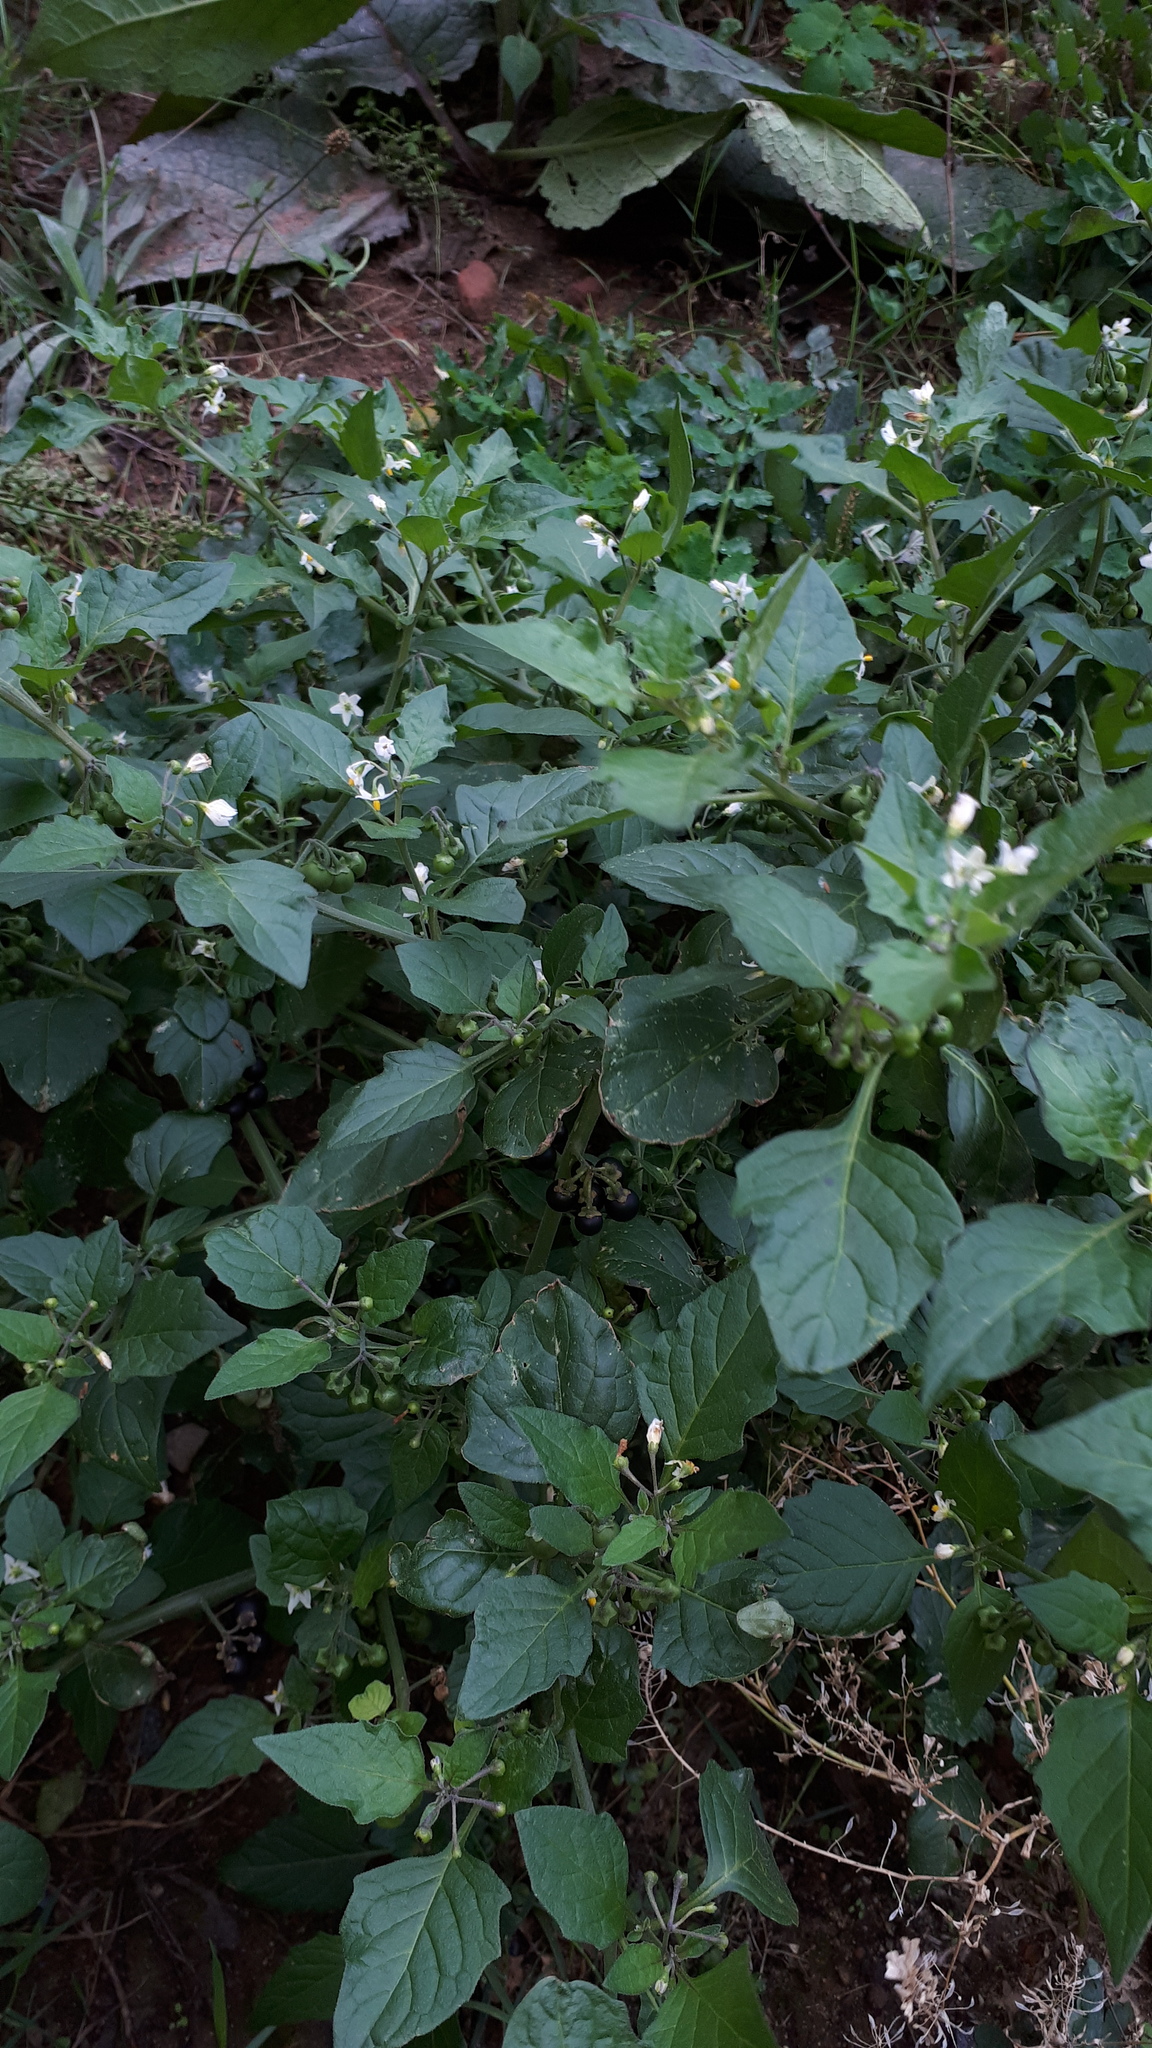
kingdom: Plantae
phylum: Tracheophyta
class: Magnoliopsida
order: Solanales
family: Solanaceae
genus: Solanum
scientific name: Solanum nigrum
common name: Black nightshade
